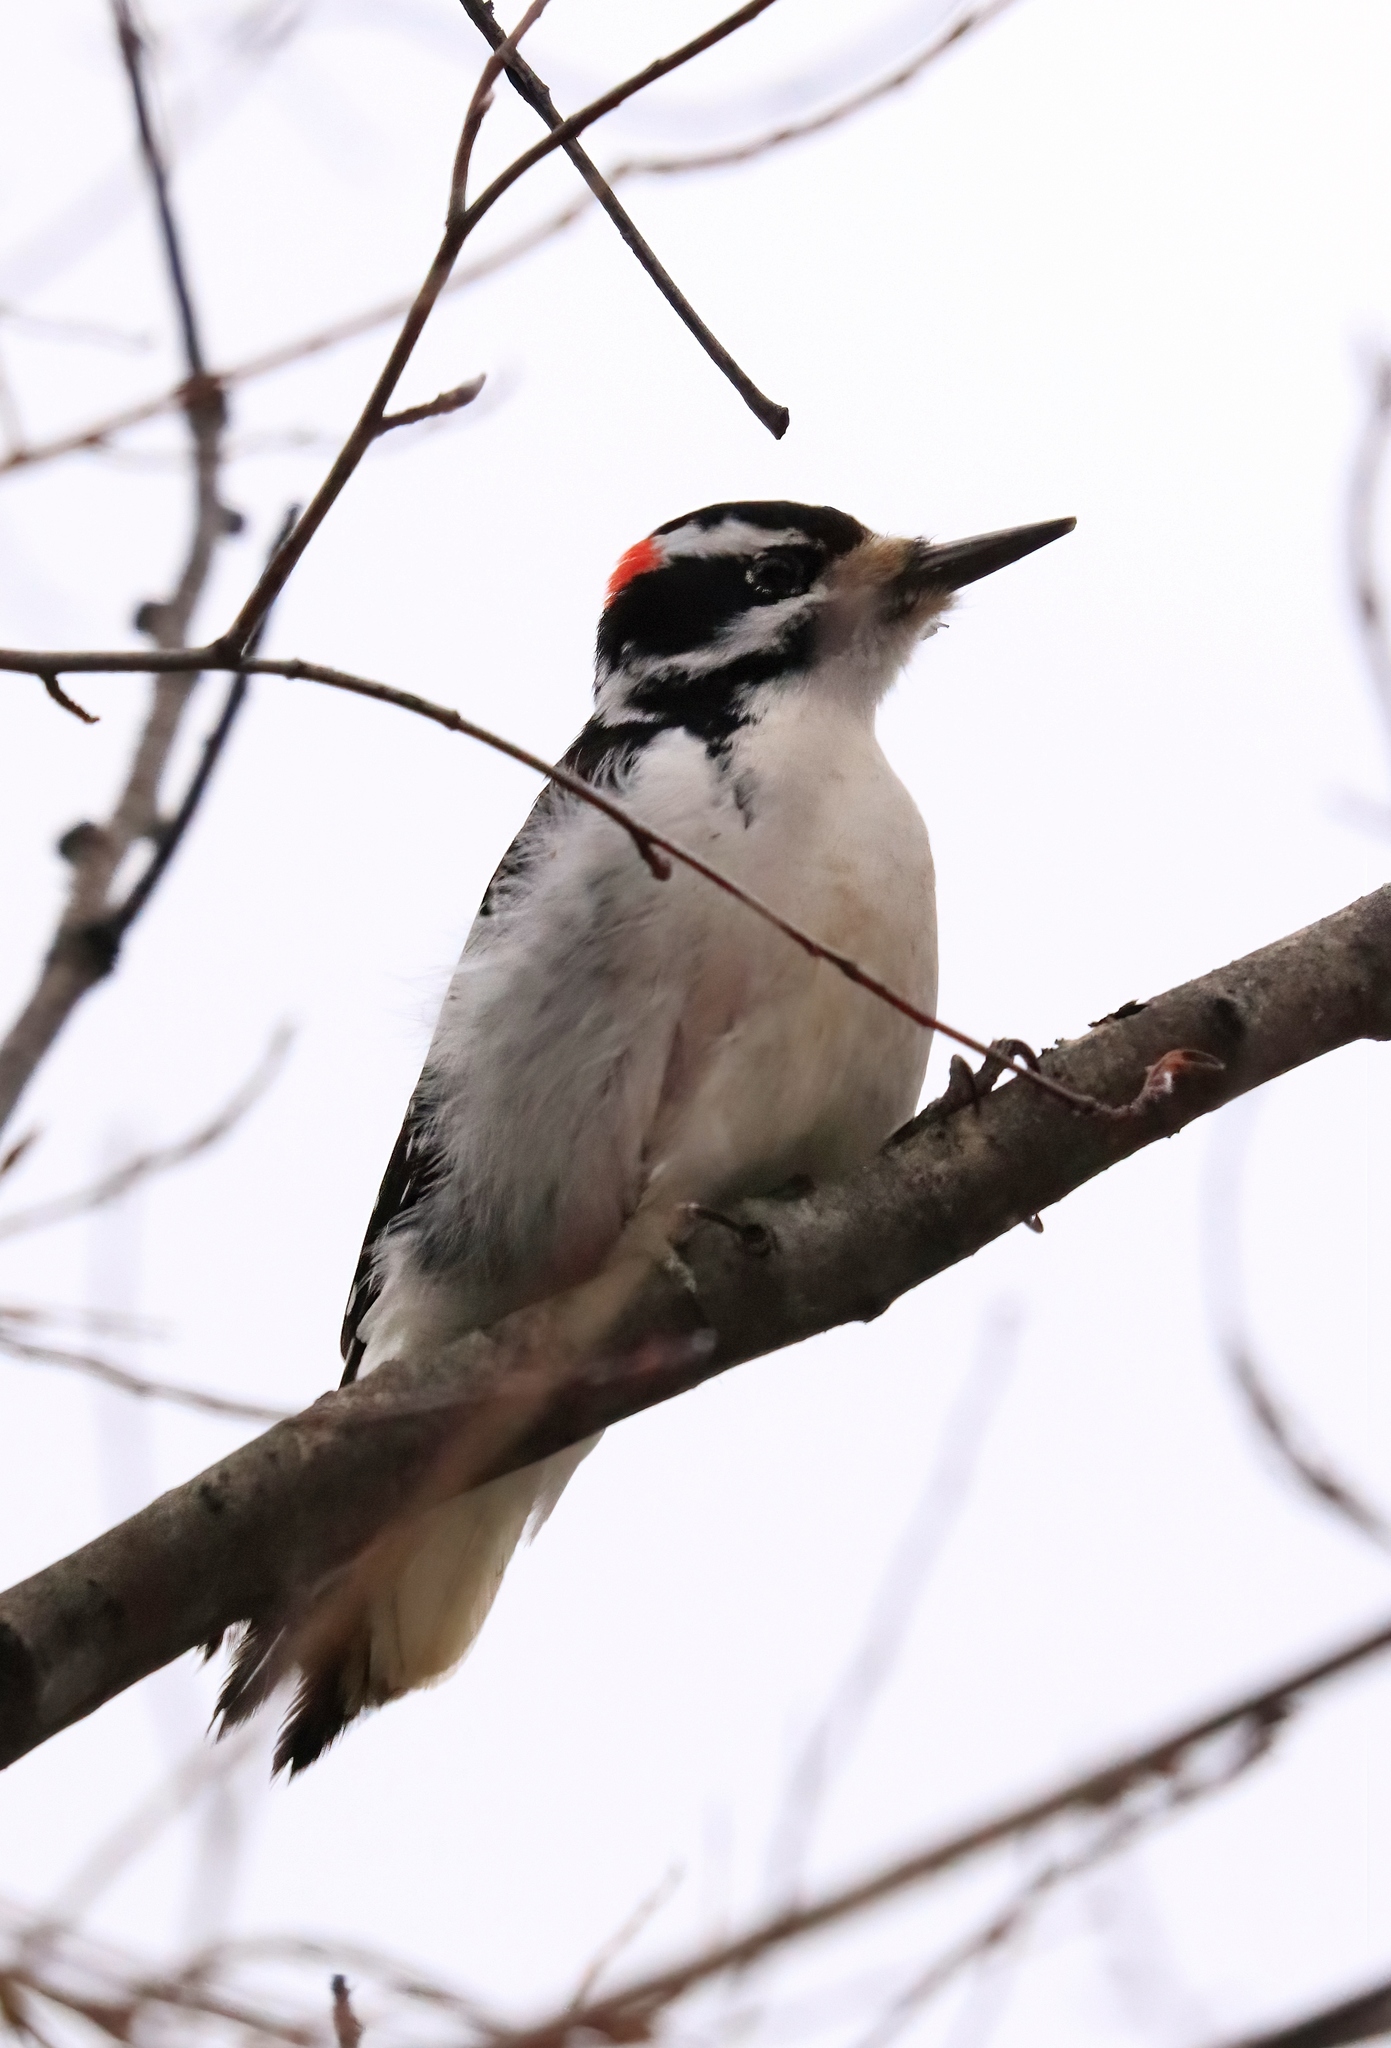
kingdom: Animalia
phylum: Chordata
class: Aves
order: Piciformes
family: Picidae
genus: Leuconotopicus
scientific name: Leuconotopicus villosus
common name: Hairy woodpecker
